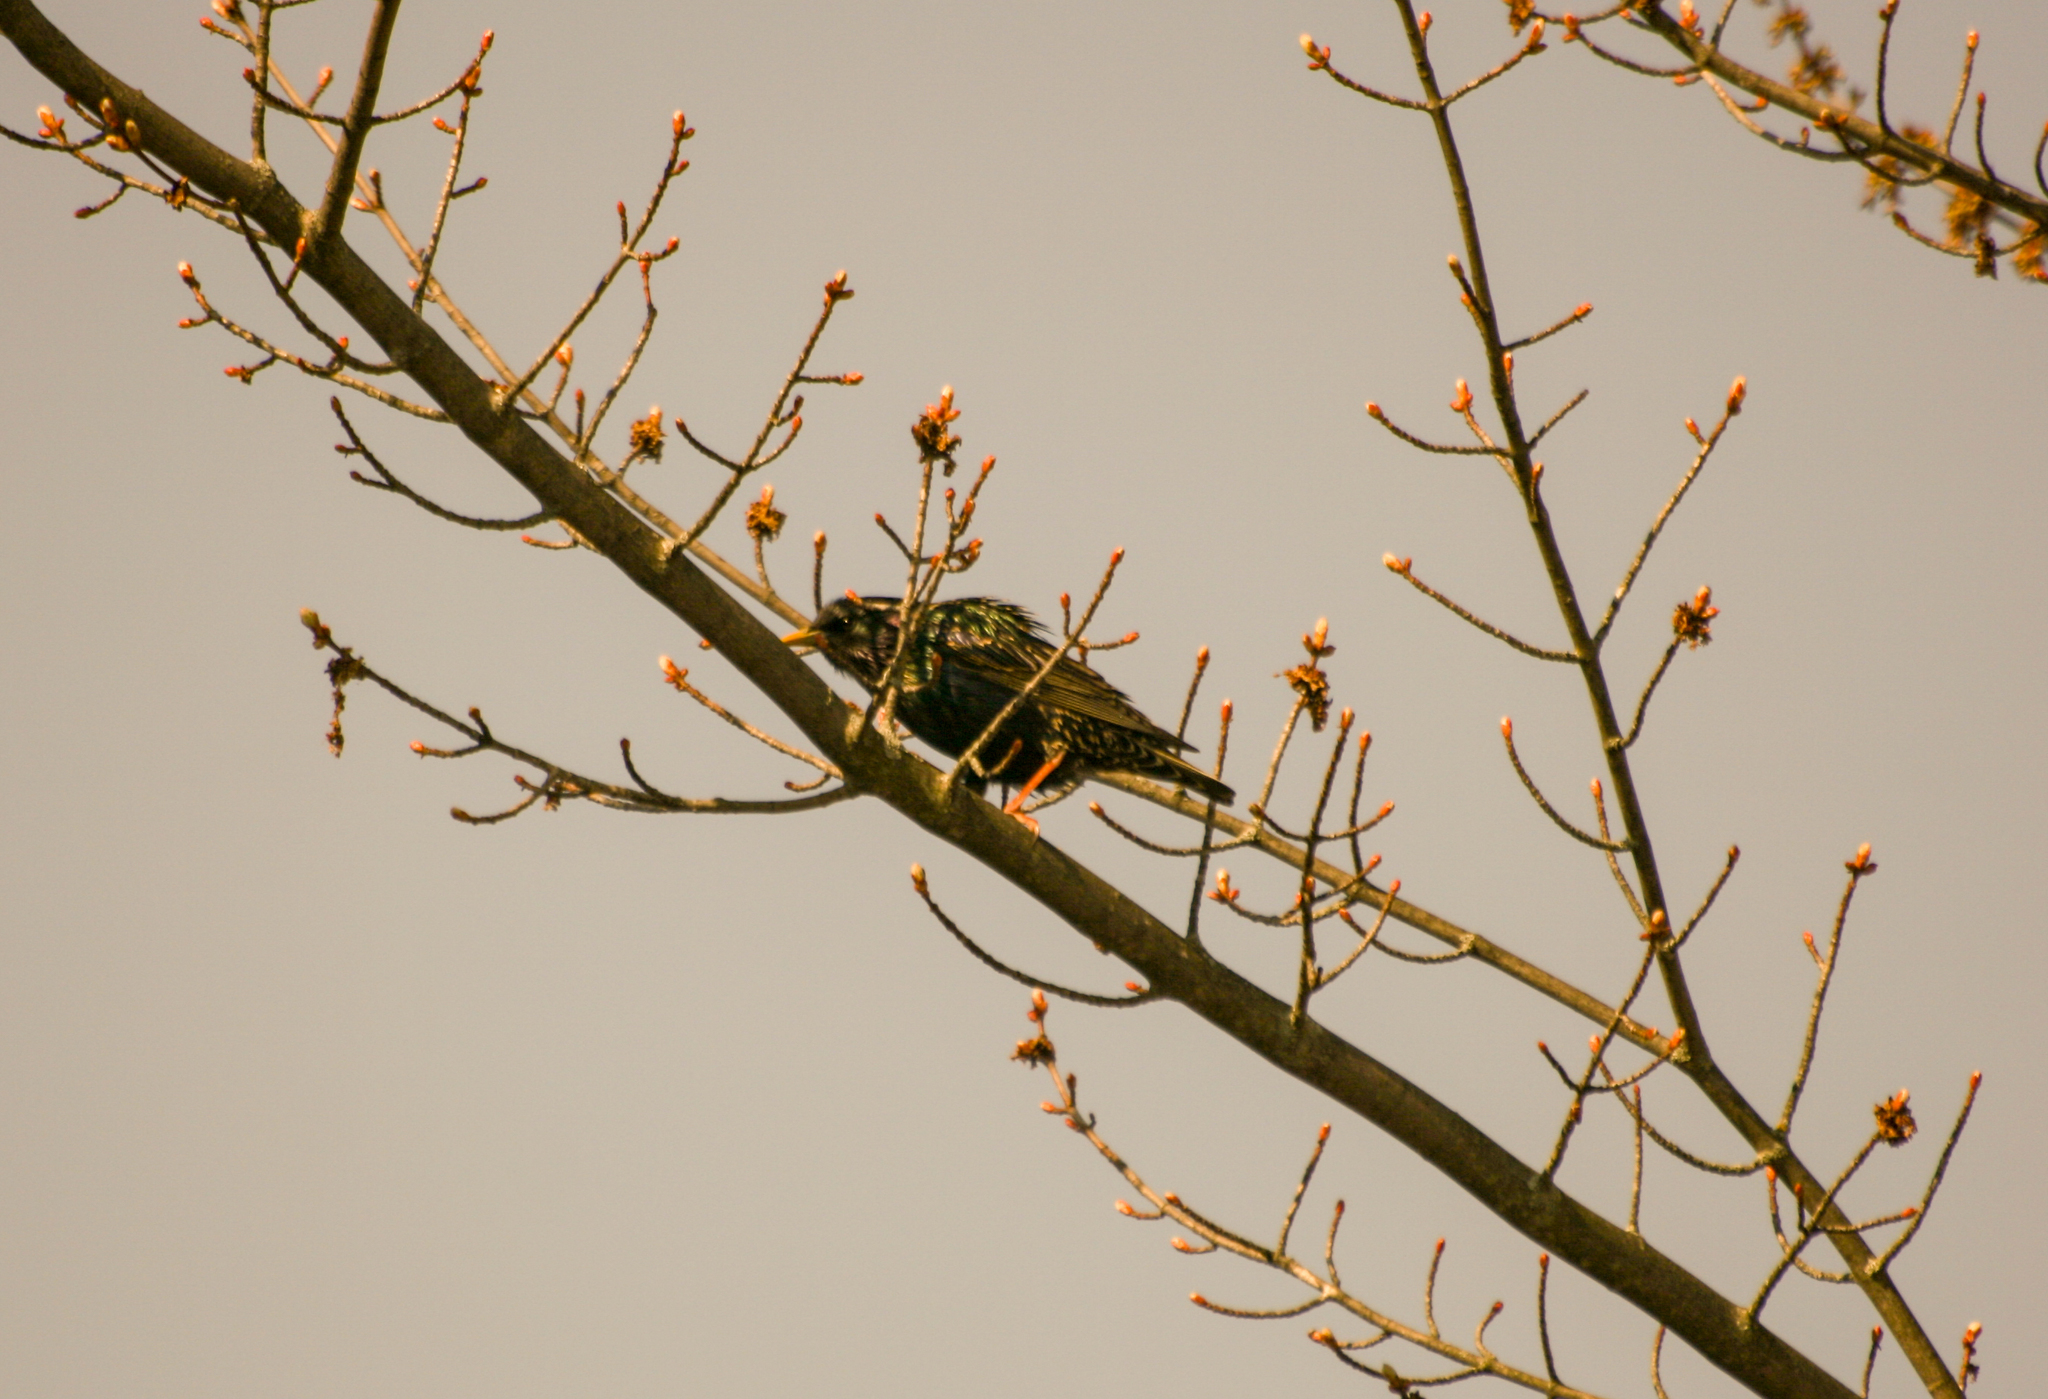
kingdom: Animalia
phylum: Chordata
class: Aves
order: Passeriformes
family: Sturnidae
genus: Sturnus
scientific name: Sturnus vulgaris
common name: Common starling
